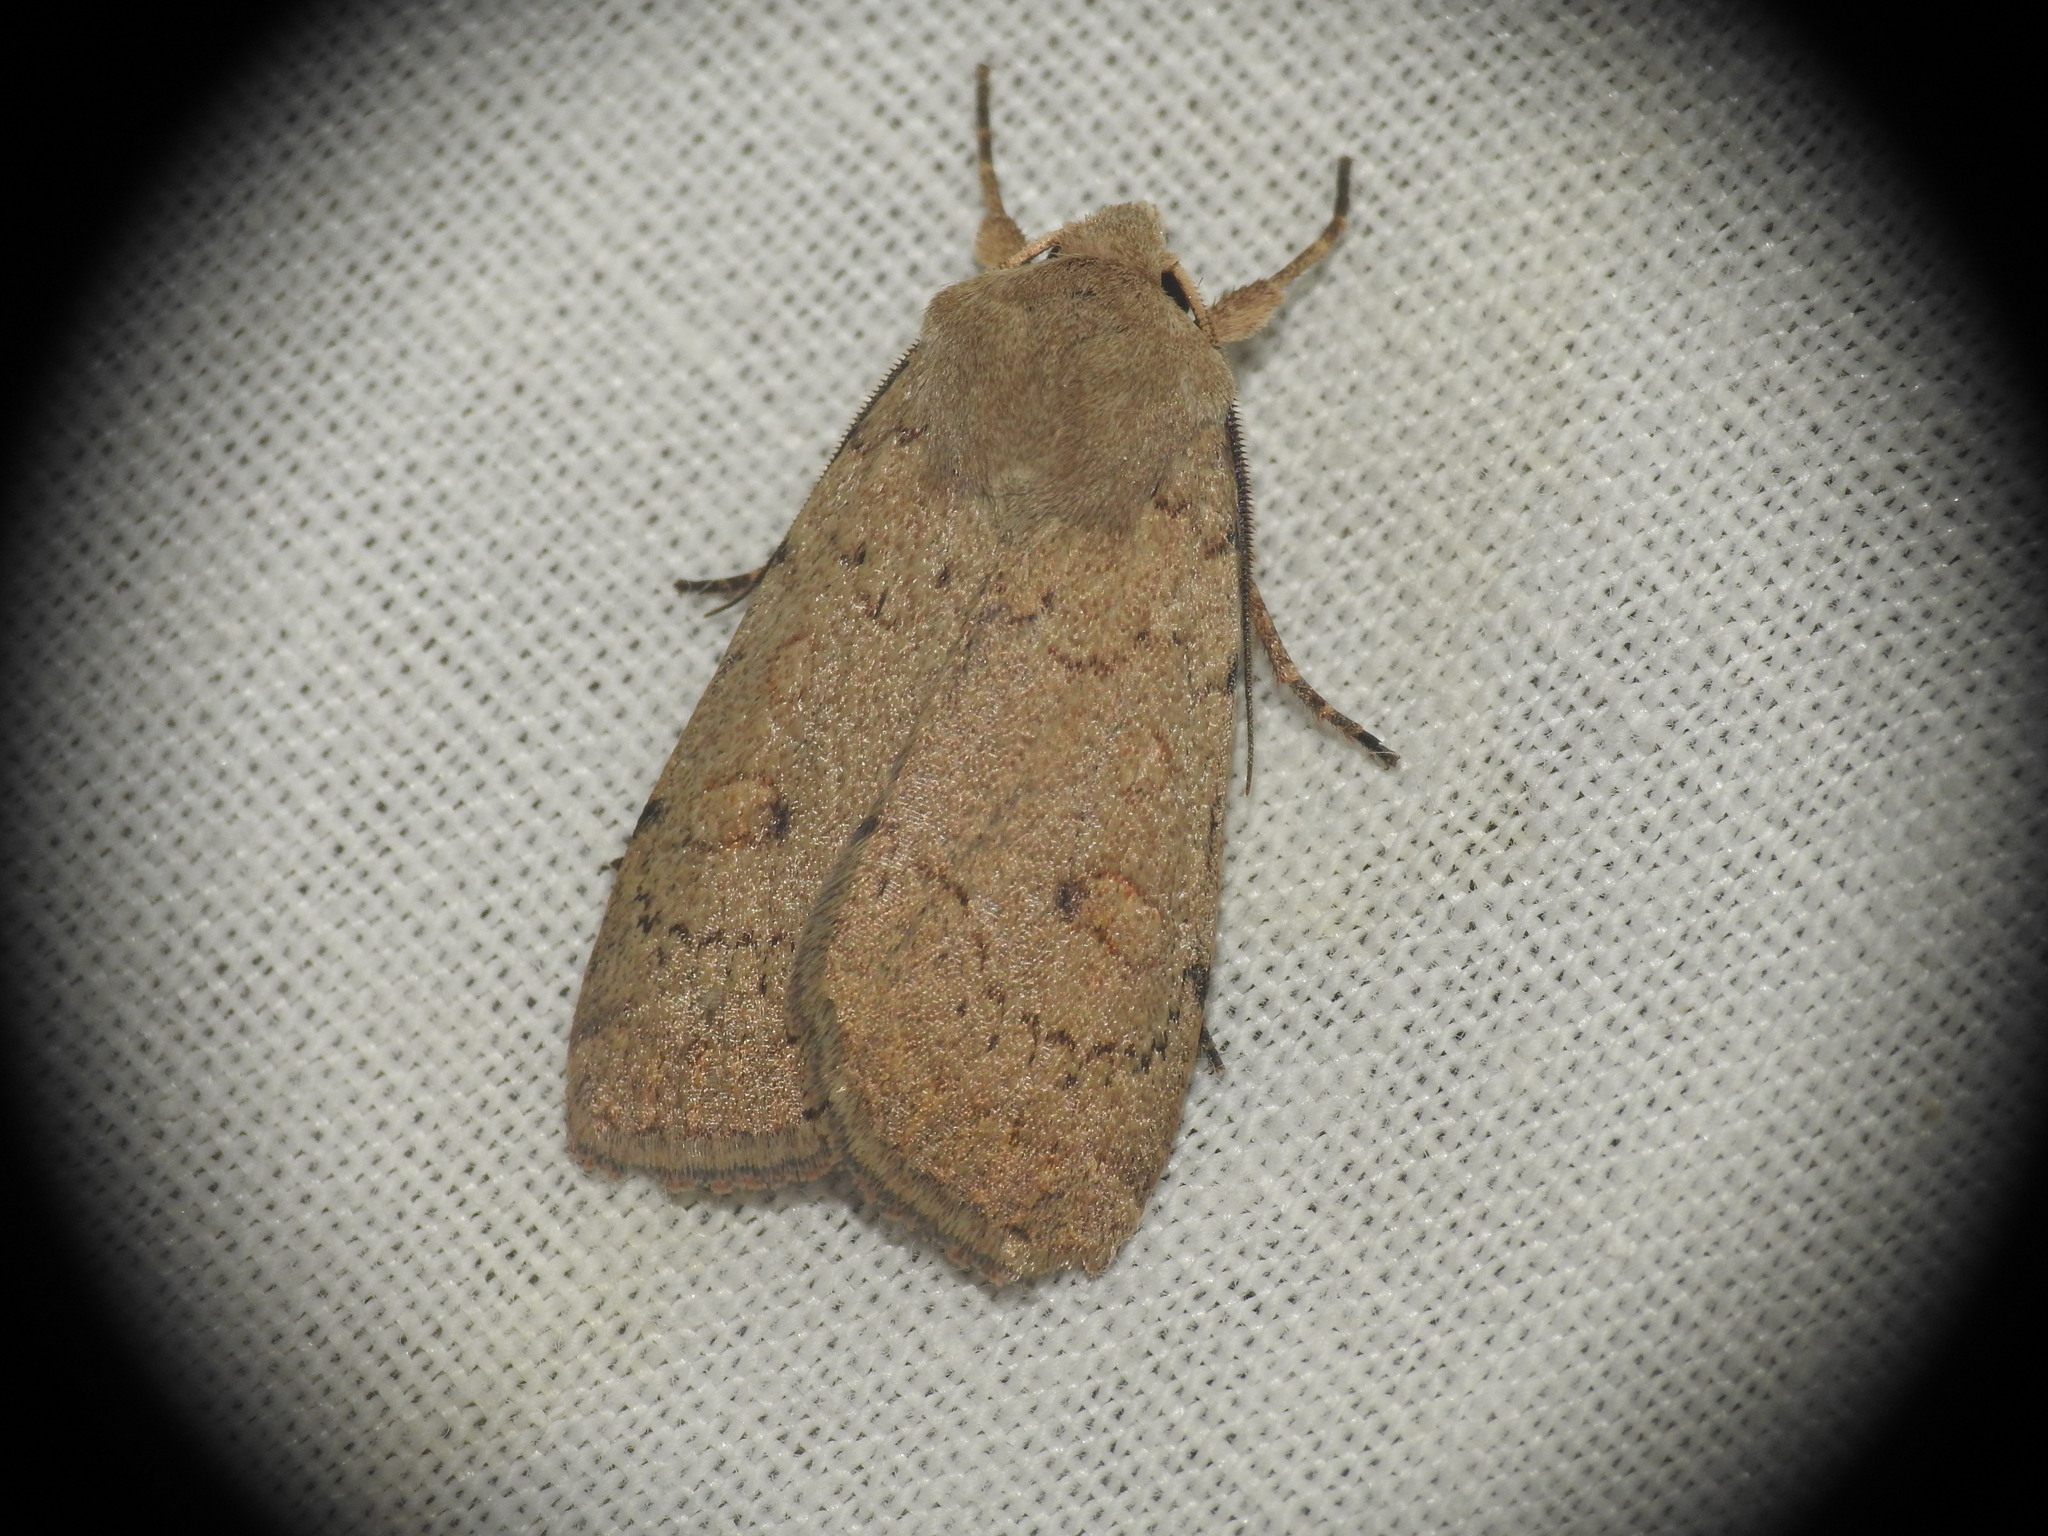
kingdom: Animalia
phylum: Arthropoda
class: Insecta
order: Lepidoptera
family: Noctuidae
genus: Xestia
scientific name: Xestia castanea
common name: Neglected rustic
